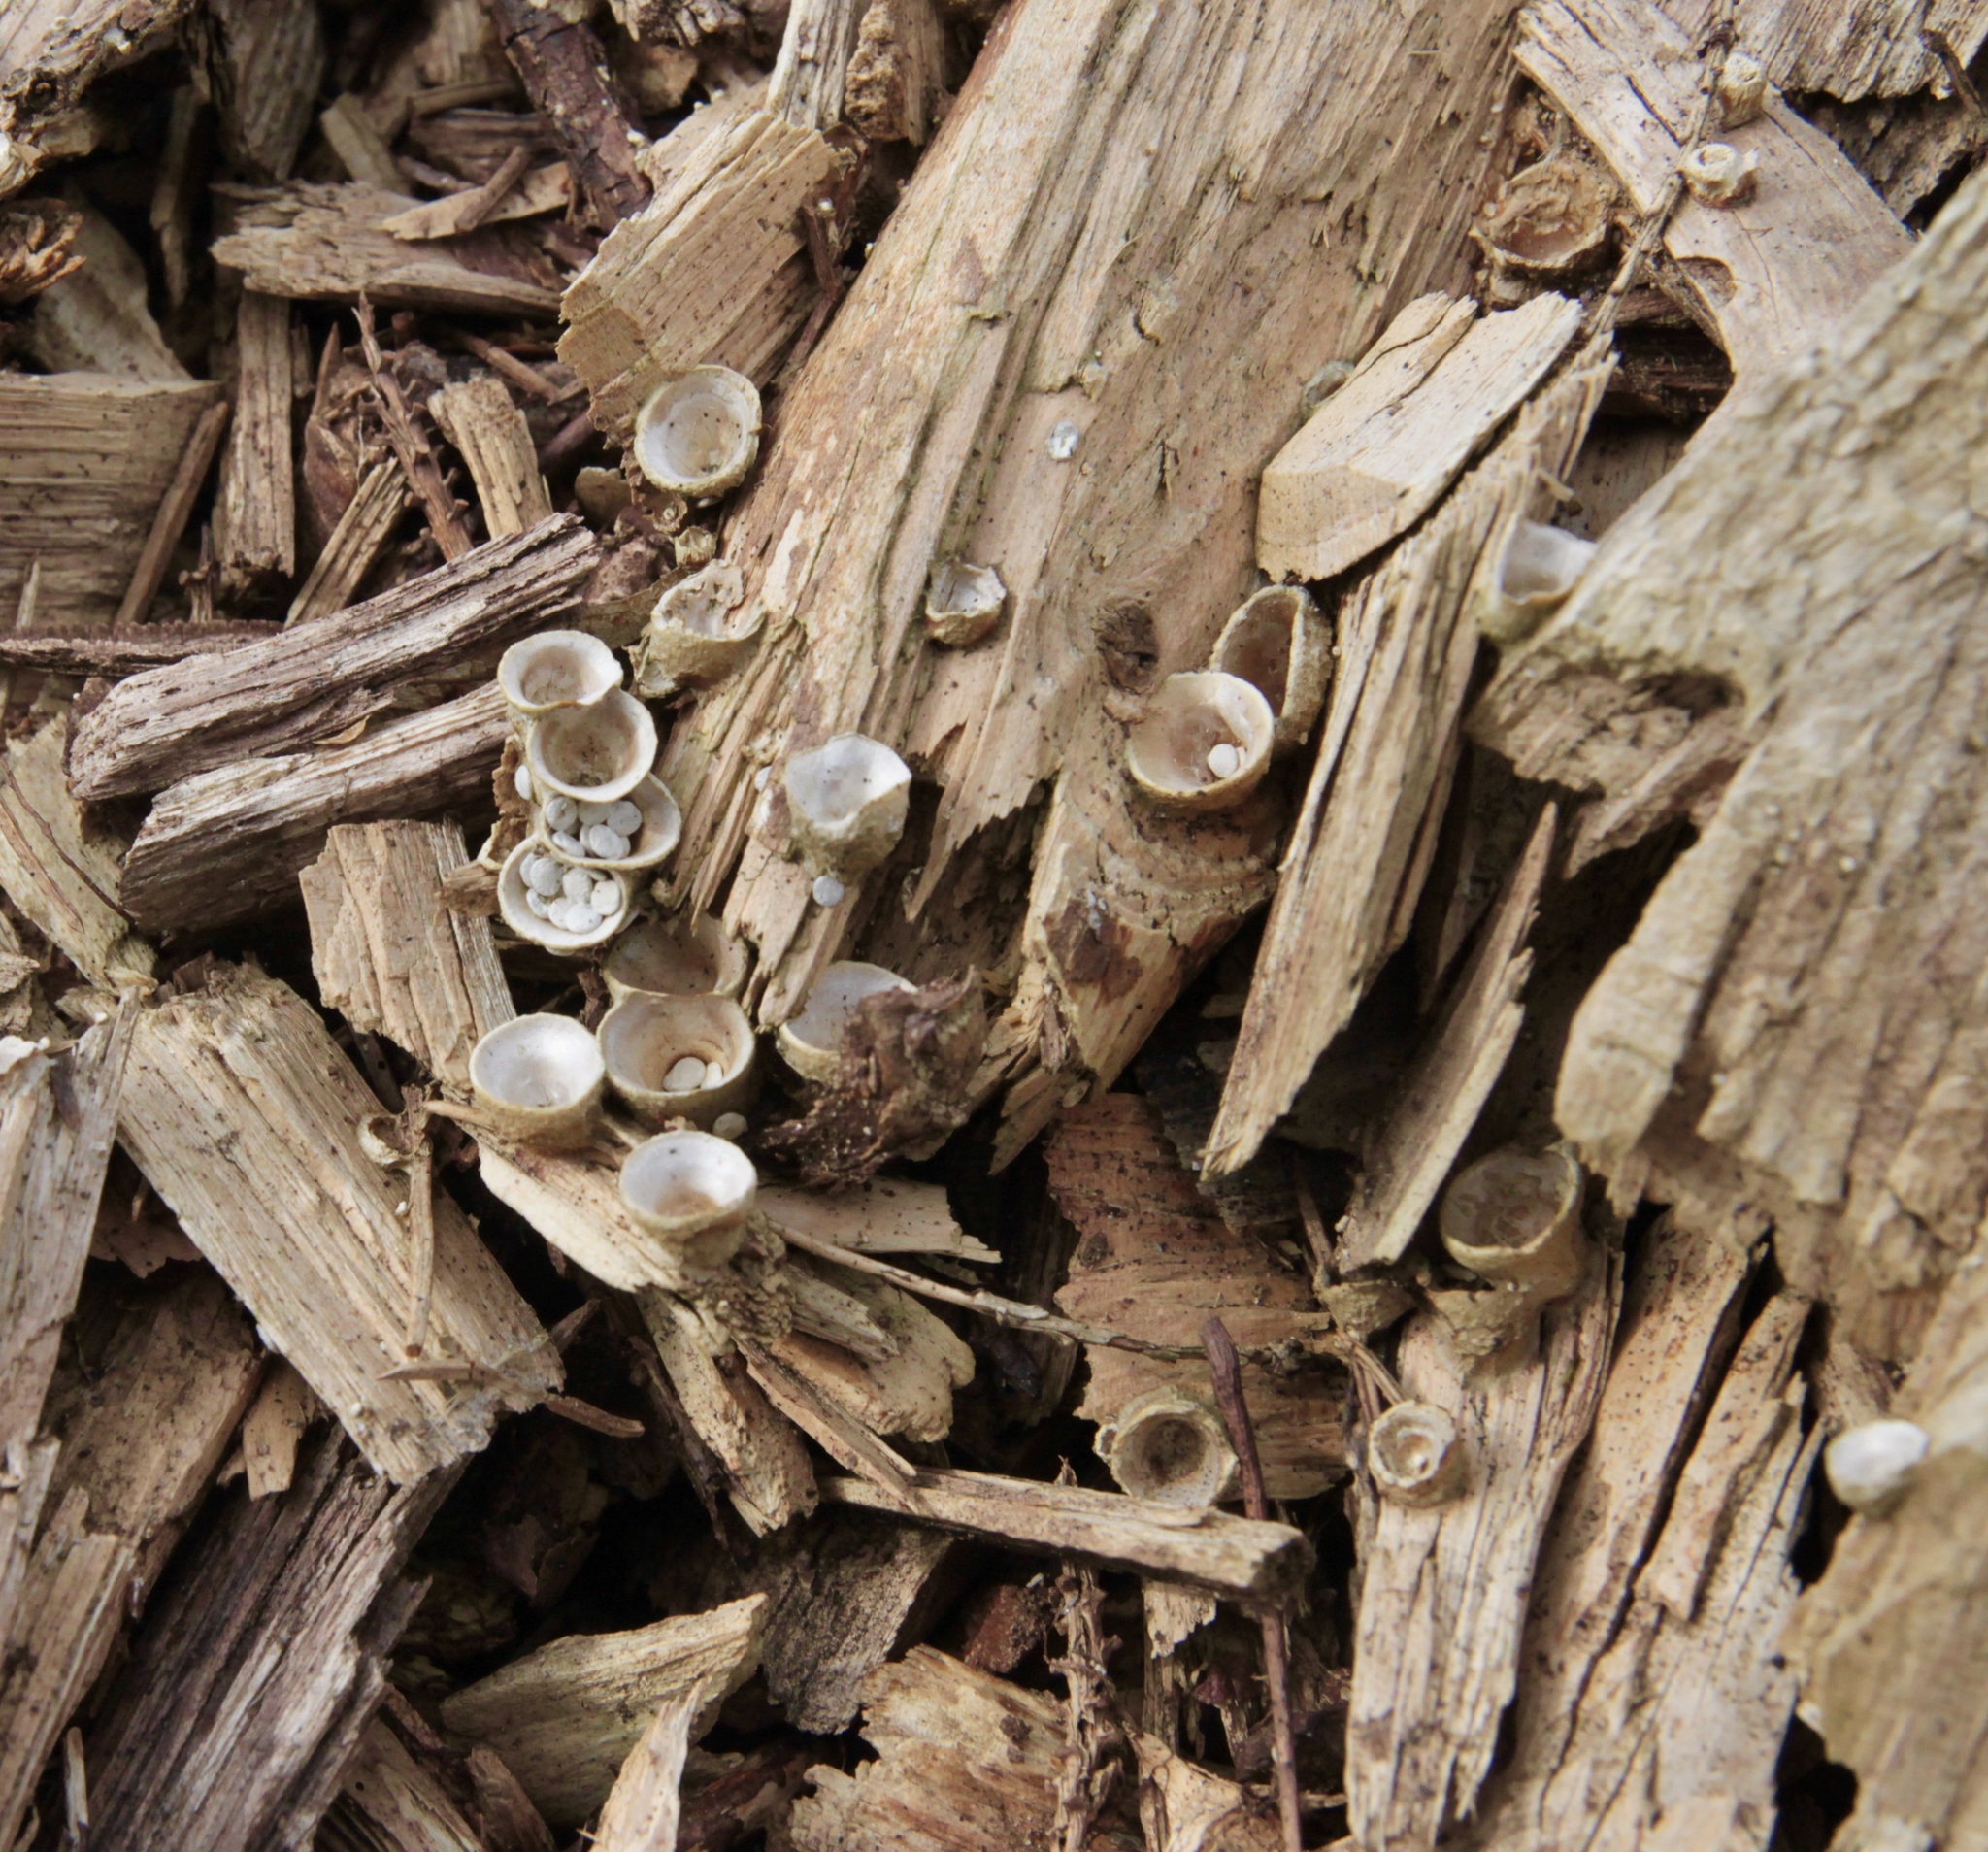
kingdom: Fungi
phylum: Basidiomycota
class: Agaricomycetes
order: Agaricales
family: Agaricaceae
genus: Cyathus
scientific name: Cyathus olla
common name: Field bird's nest
